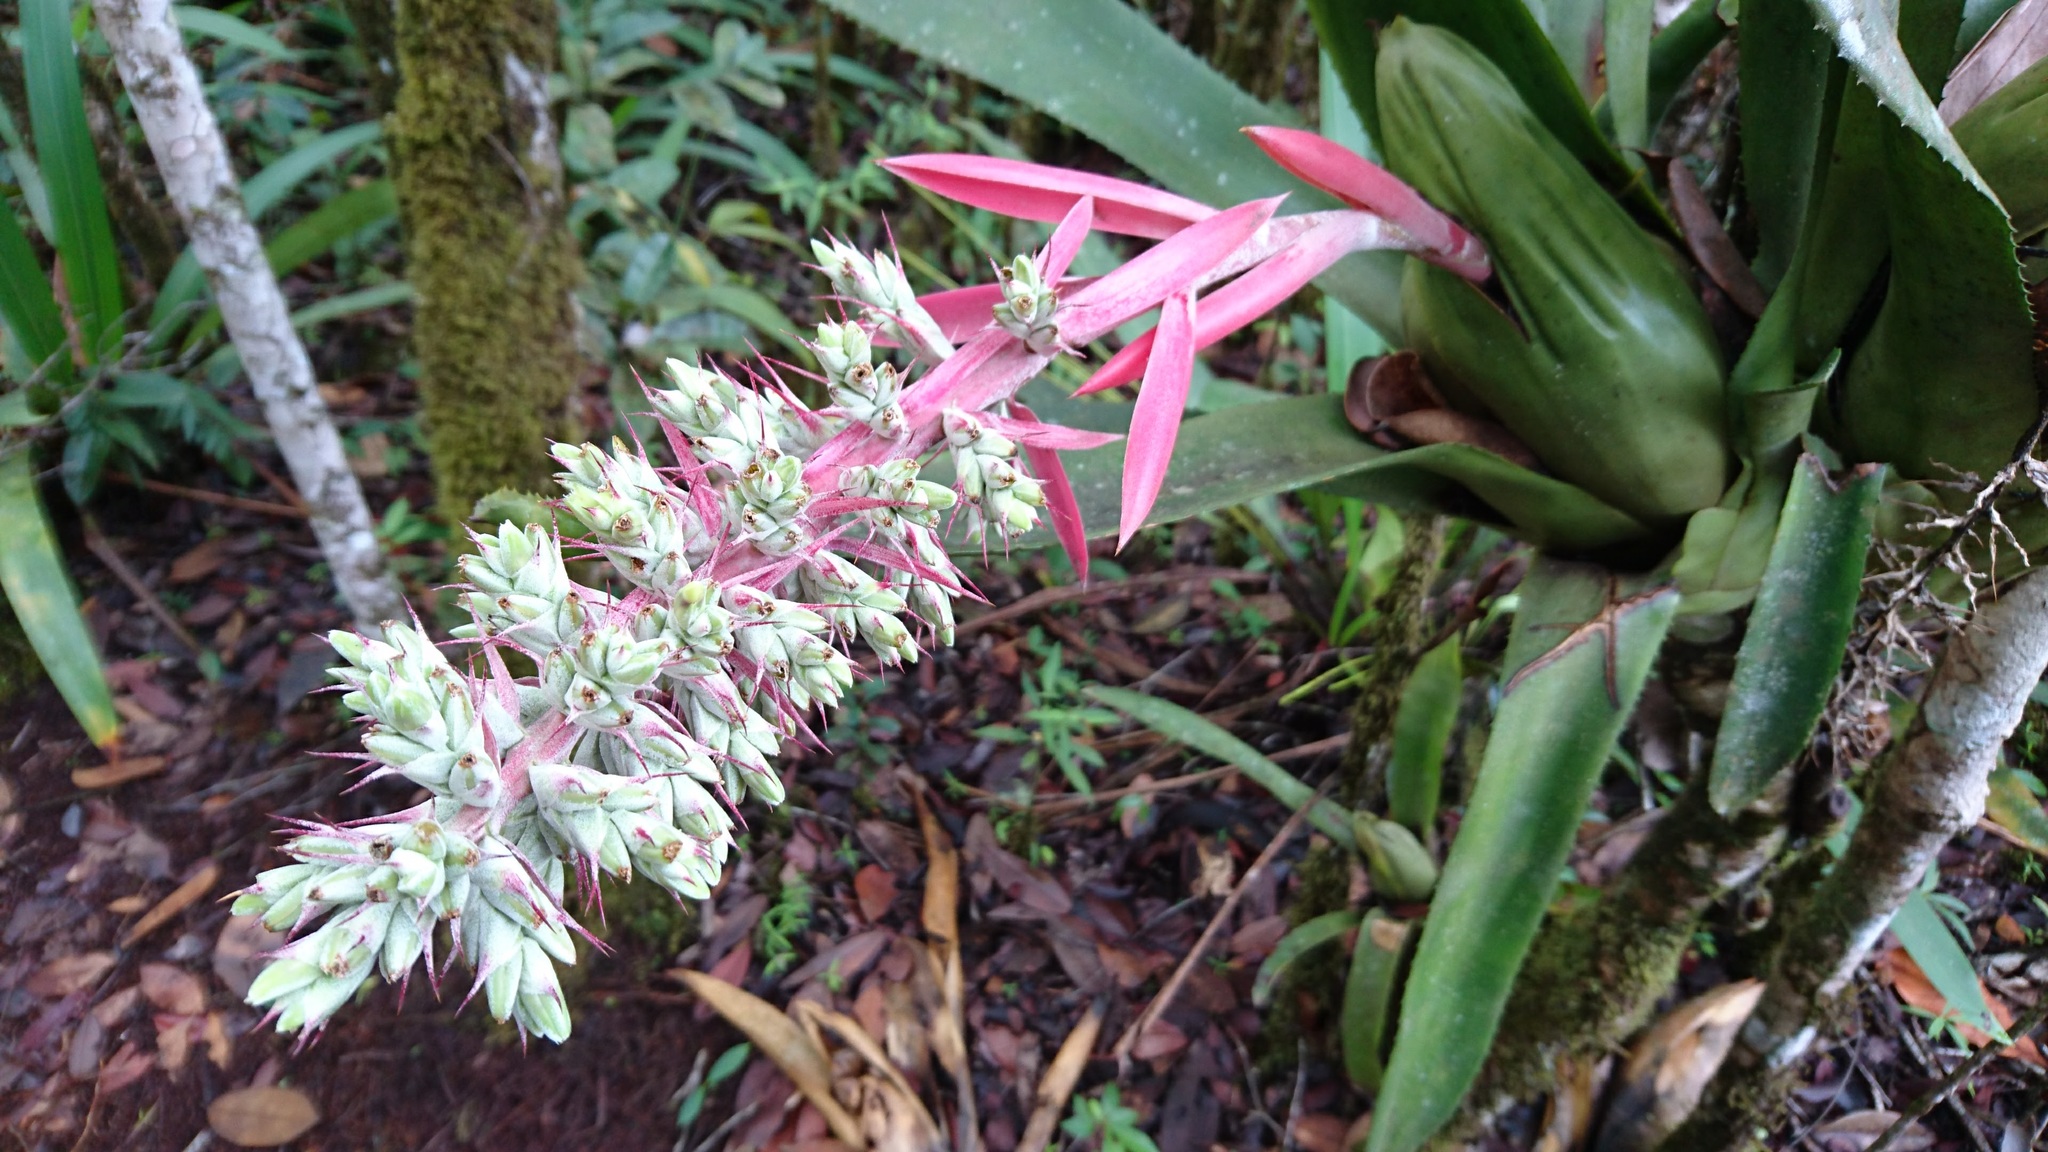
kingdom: Plantae
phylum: Tracheophyta
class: Liliopsida
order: Poales
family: Bromeliaceae
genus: Aechmea
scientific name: Aechmea brassicoides
